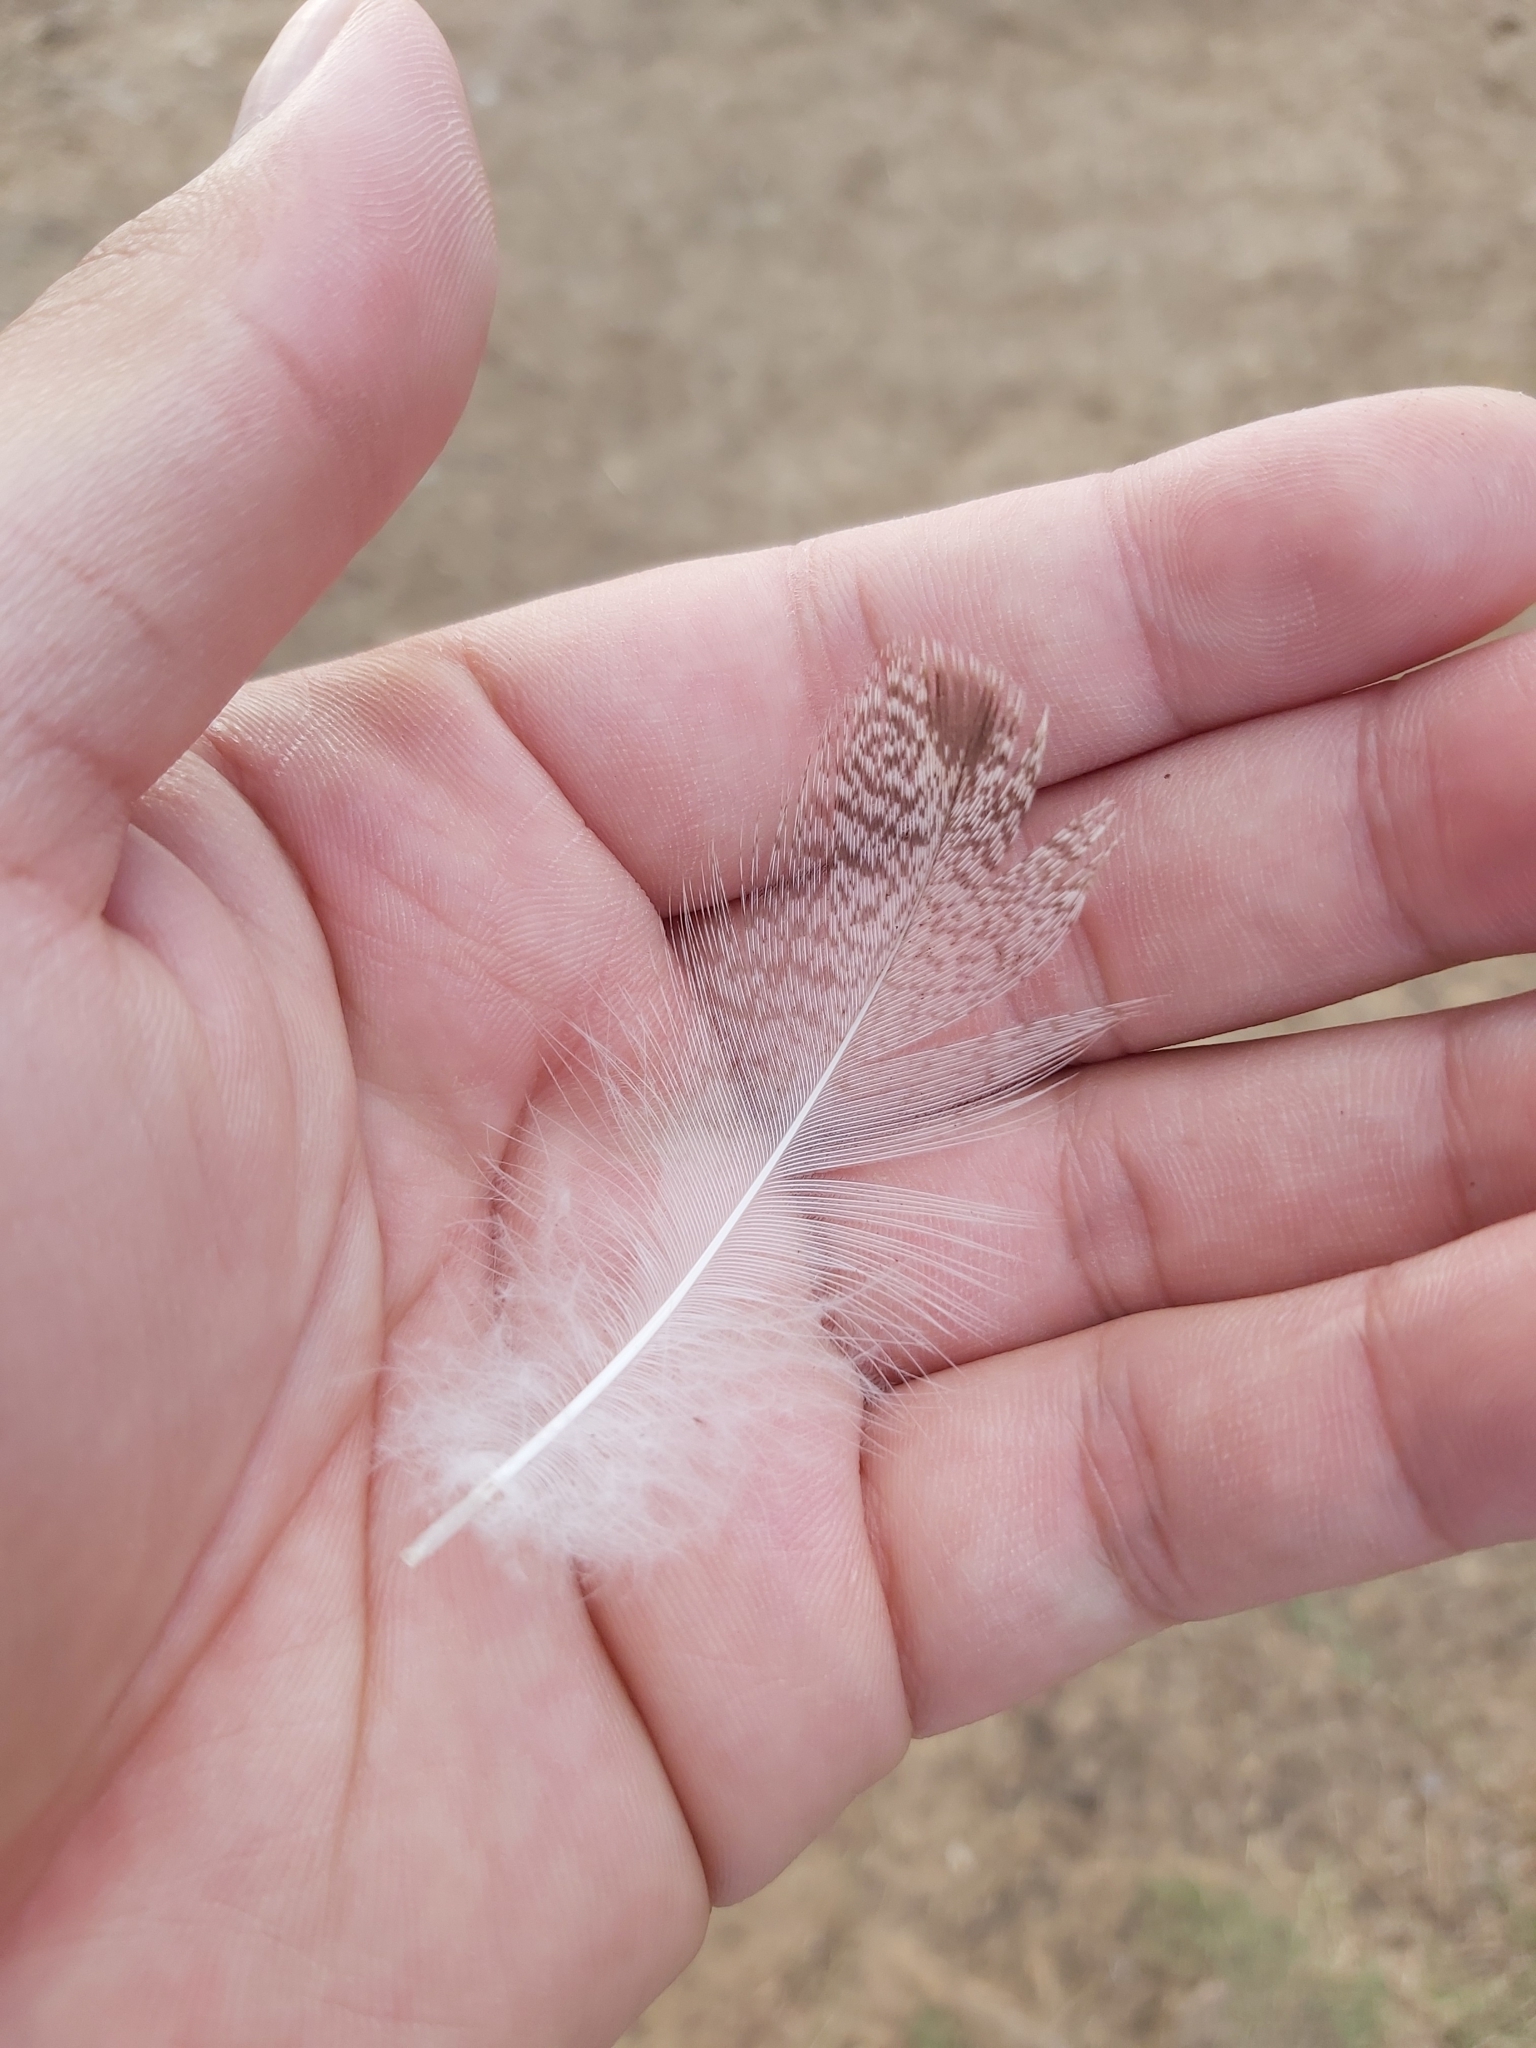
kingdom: Animalia
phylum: Chordata
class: Aves
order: Anseriformes
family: Anatidae
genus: Chenonetta
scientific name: Chenonetta jubata
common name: Maned duck
